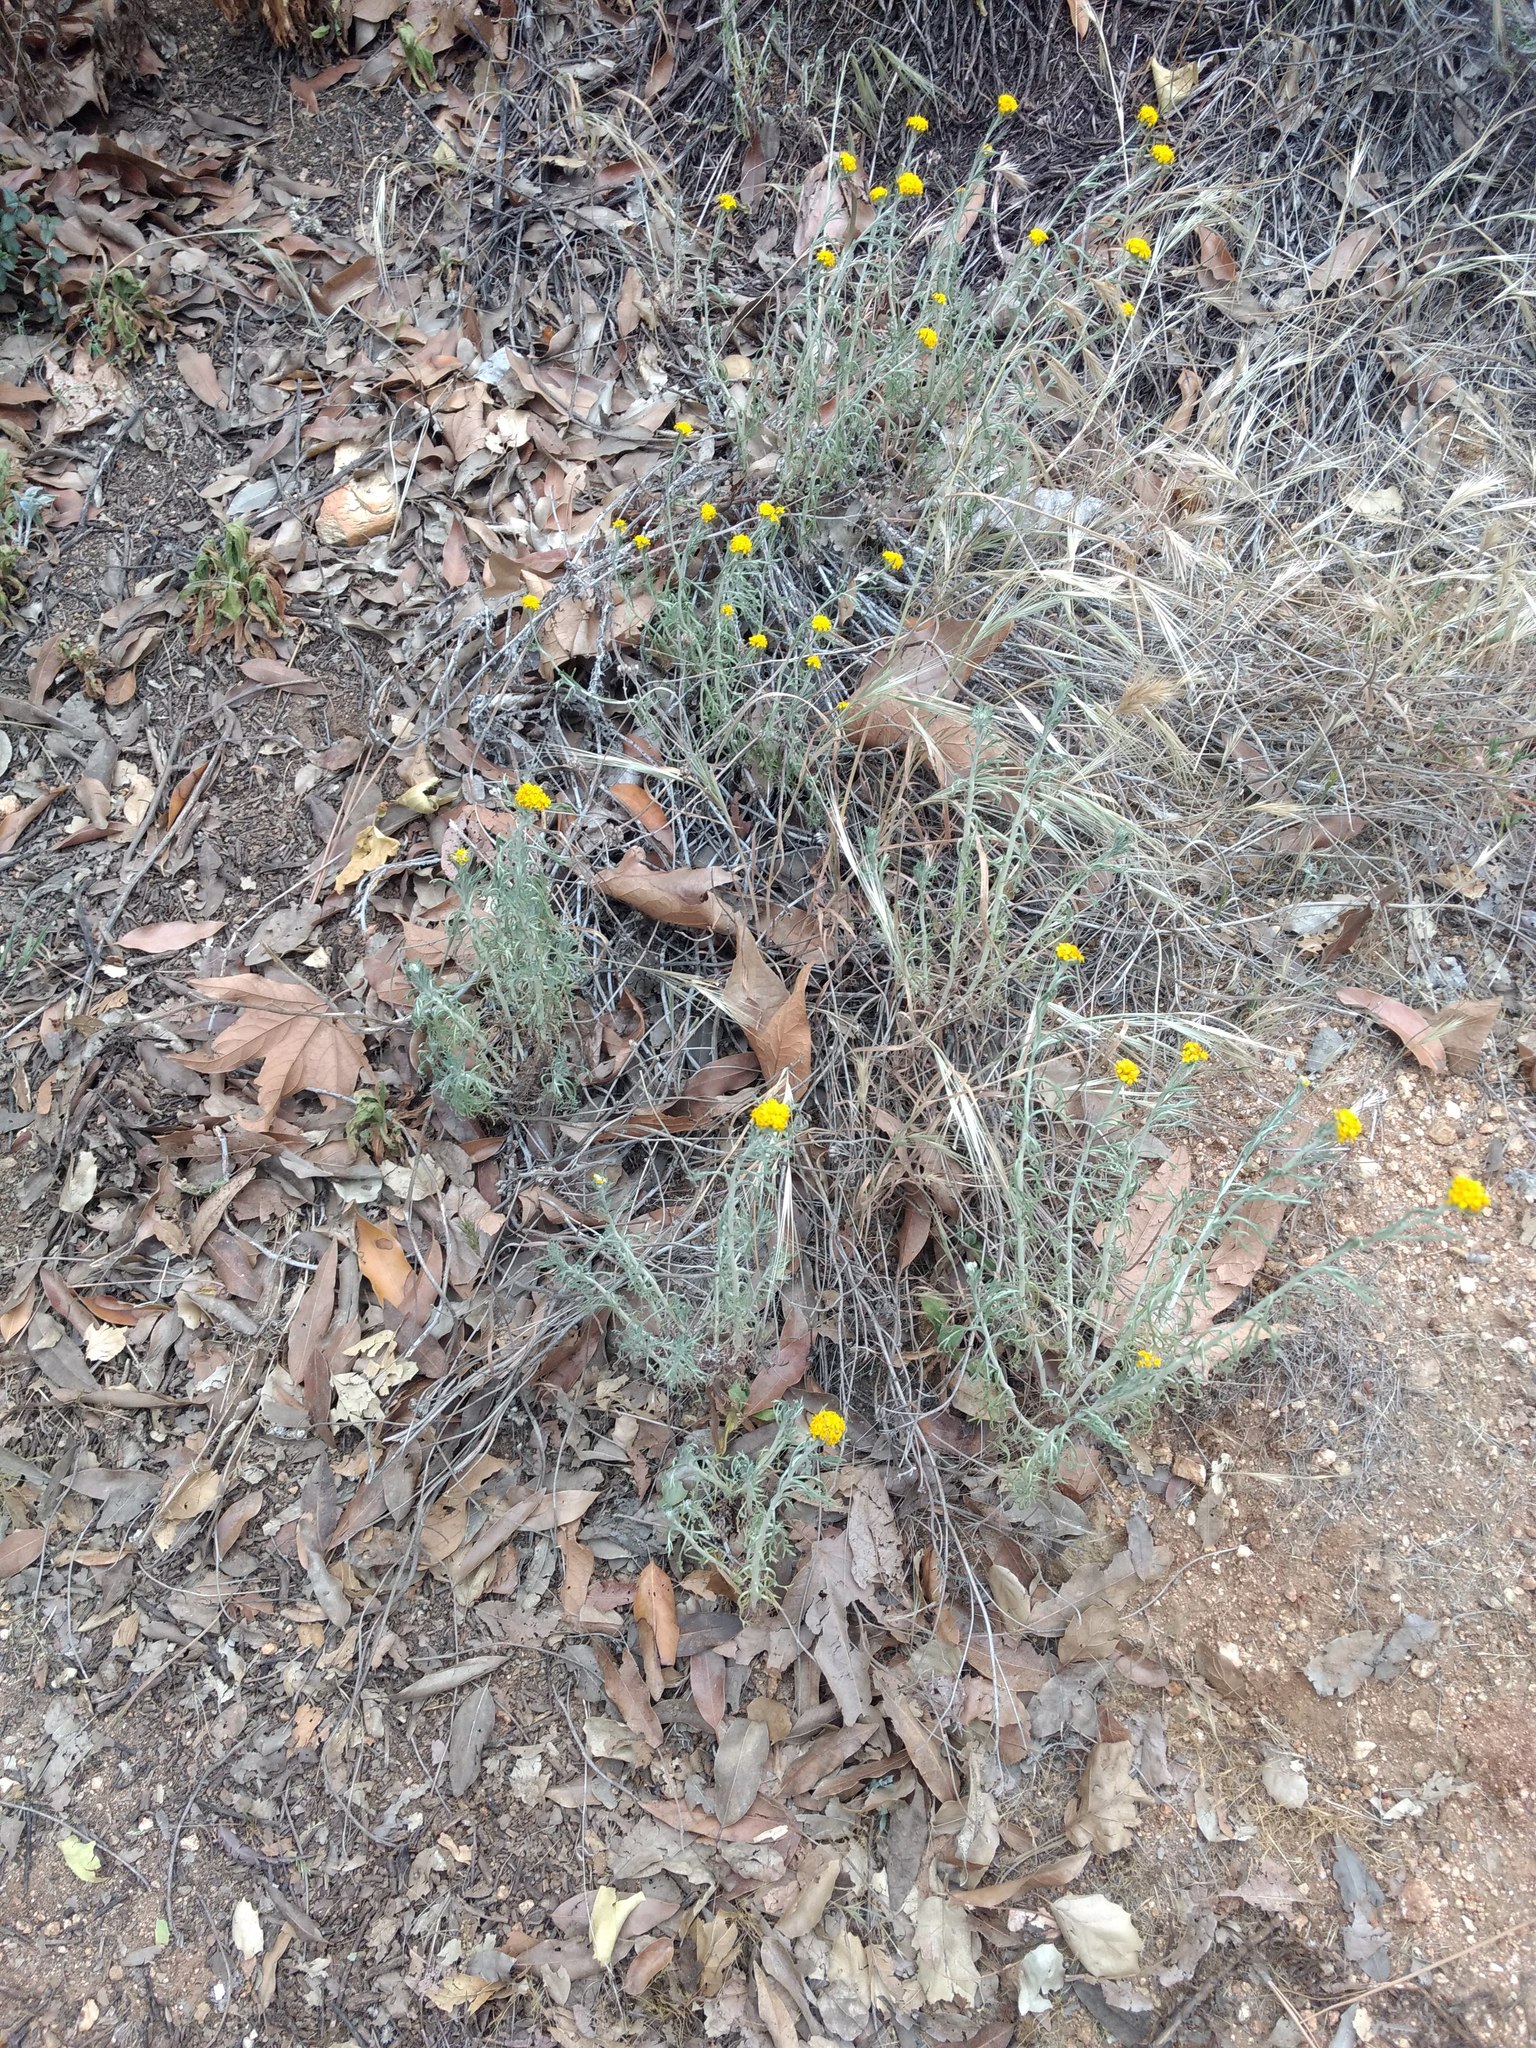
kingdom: Plantae
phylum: Tracheophyta
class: Magnoliopsida
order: Asterales
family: Asteraceae
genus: Eriophyllum
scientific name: Eriophyllum confertiflorum
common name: Golden-yarrow
